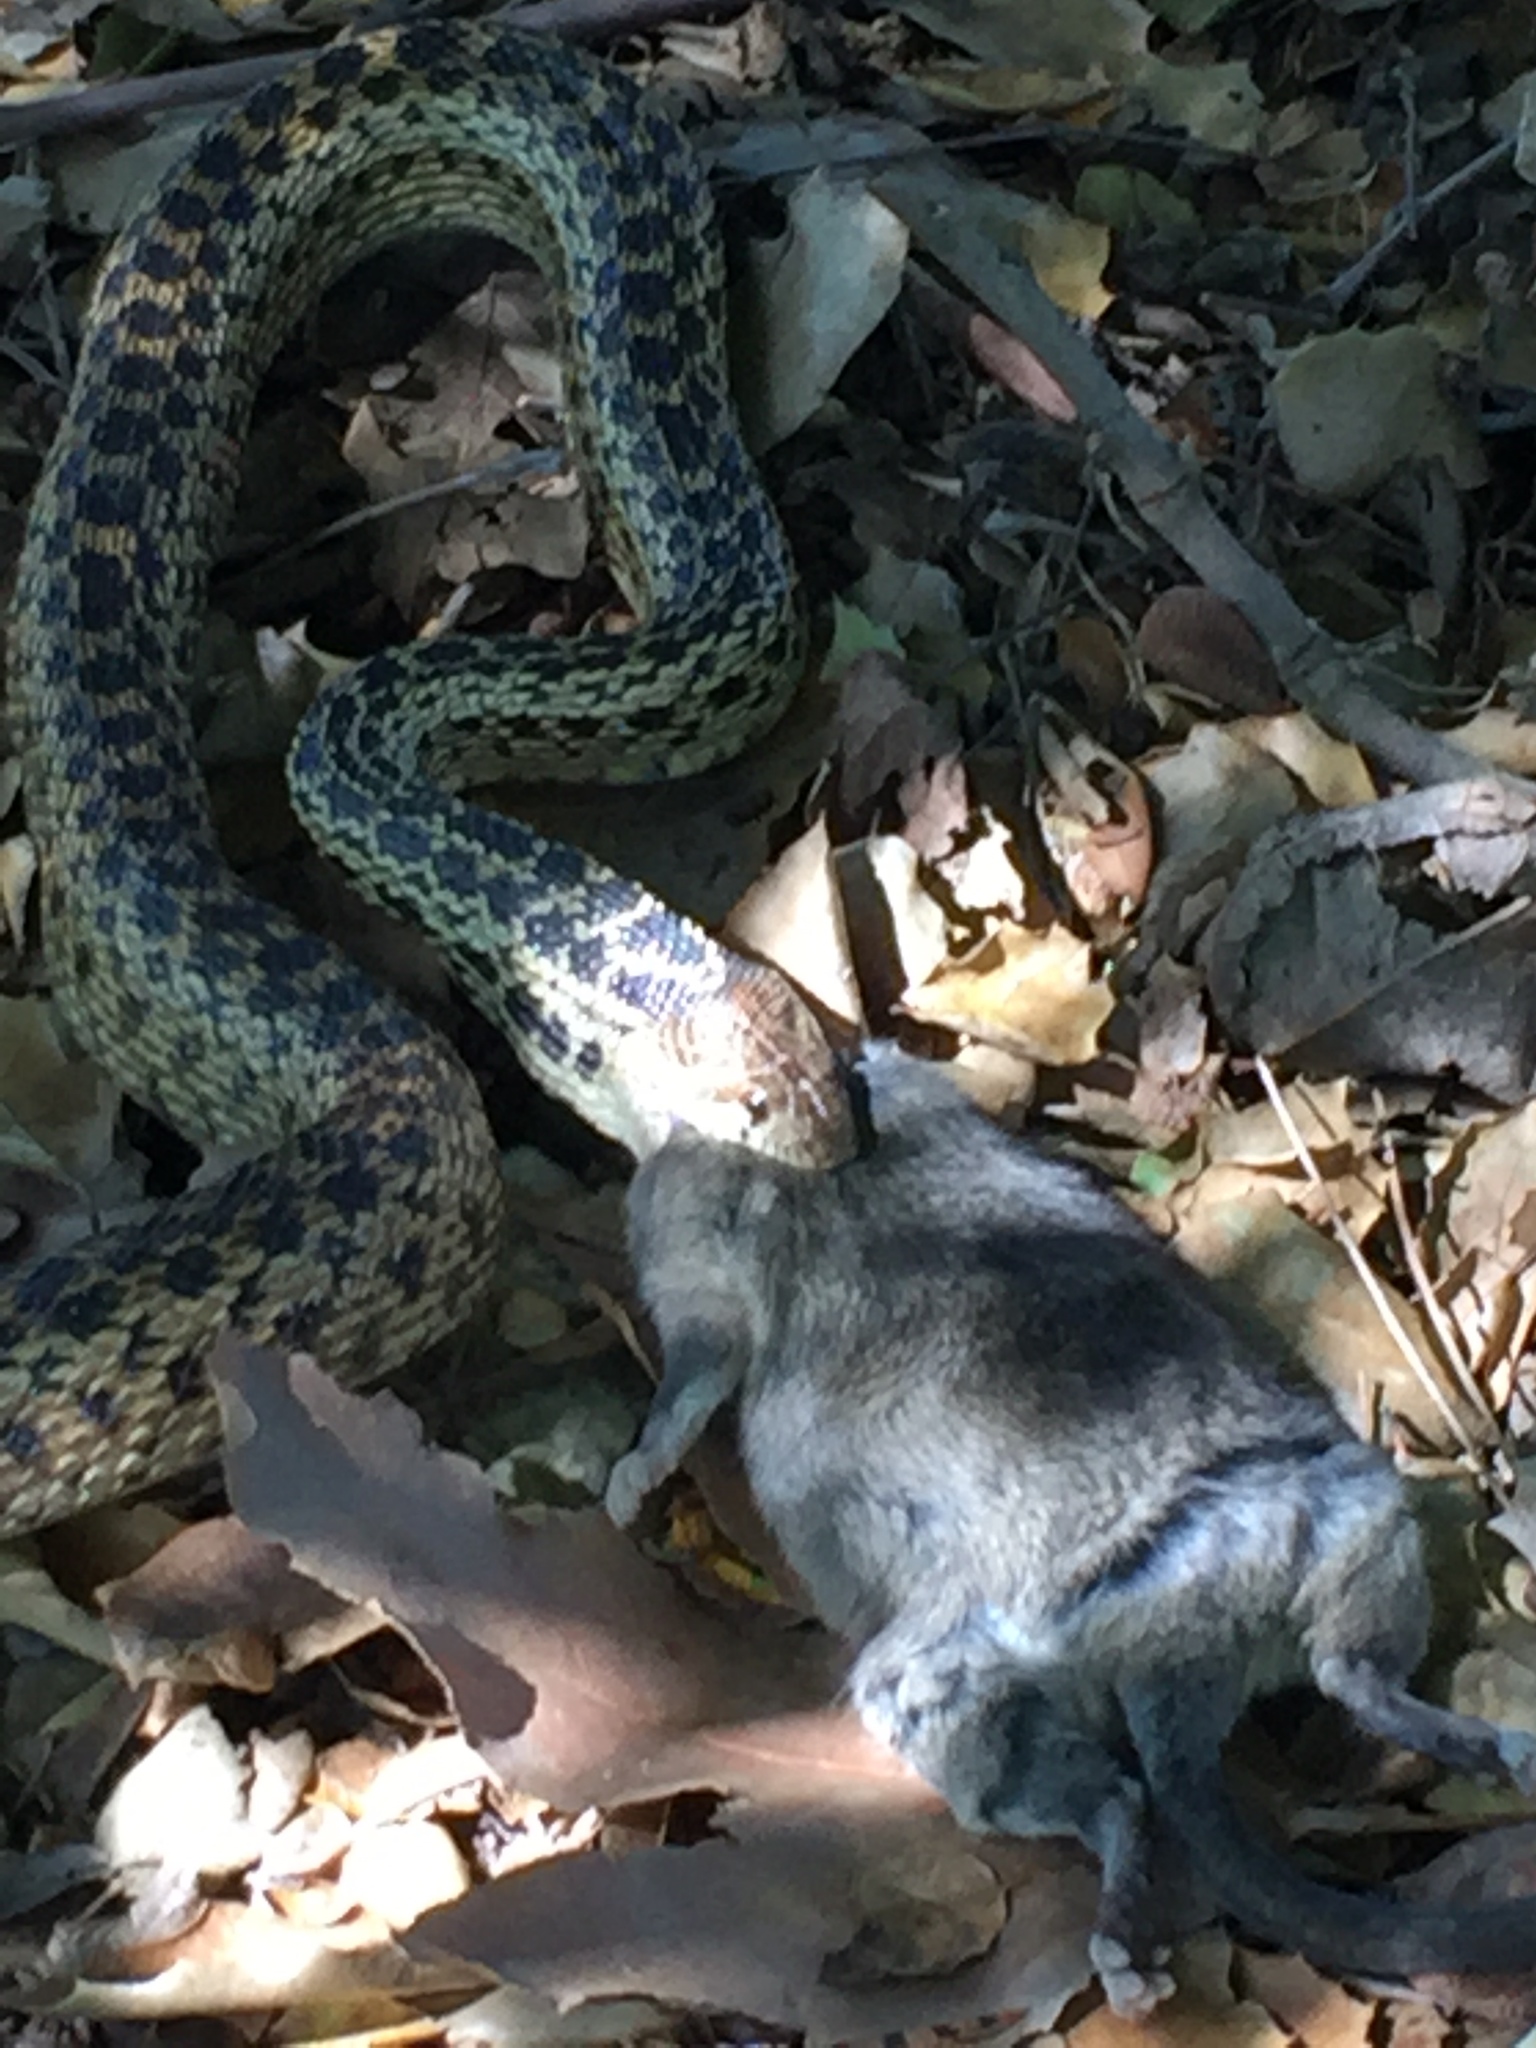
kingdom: Animalia
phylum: Chordata
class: Squamata
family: Colubridae
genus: Pituophis
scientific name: Pituophis catenifer
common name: Gopher snake
